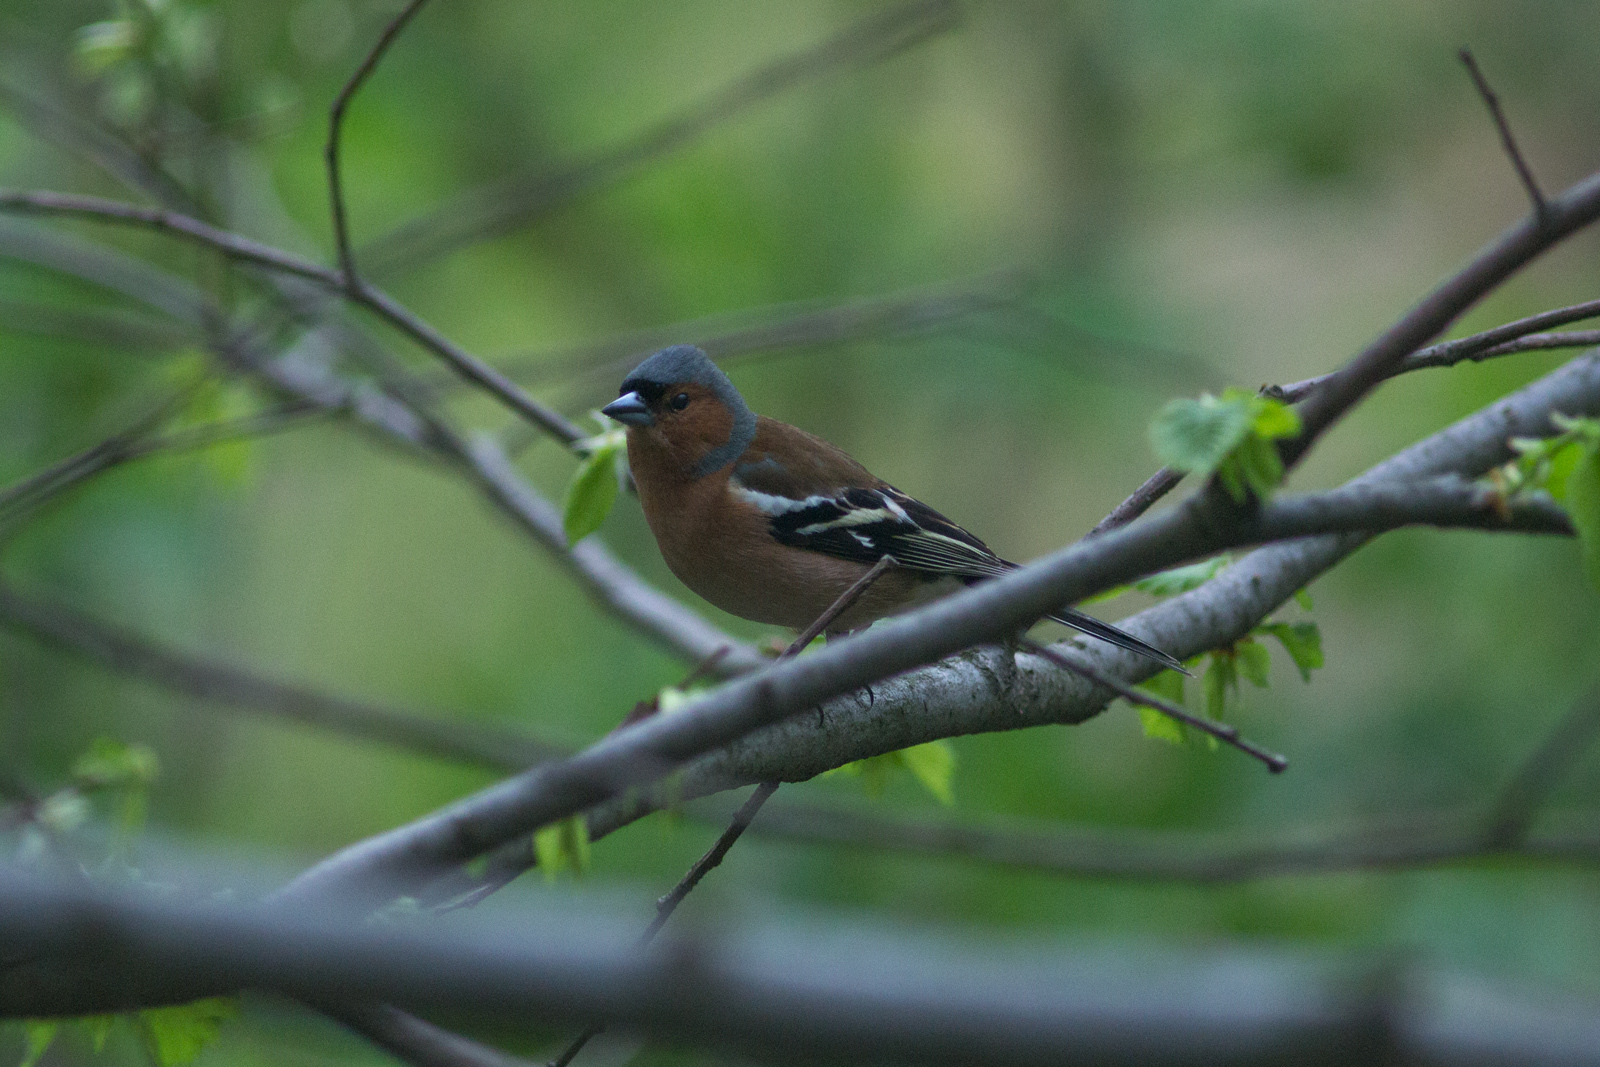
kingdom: Animalia
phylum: Chordata
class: Aves
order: Passeriformes
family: Fringillidae
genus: Fringilla
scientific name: Fringilla coelebs
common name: Common chaffinch
